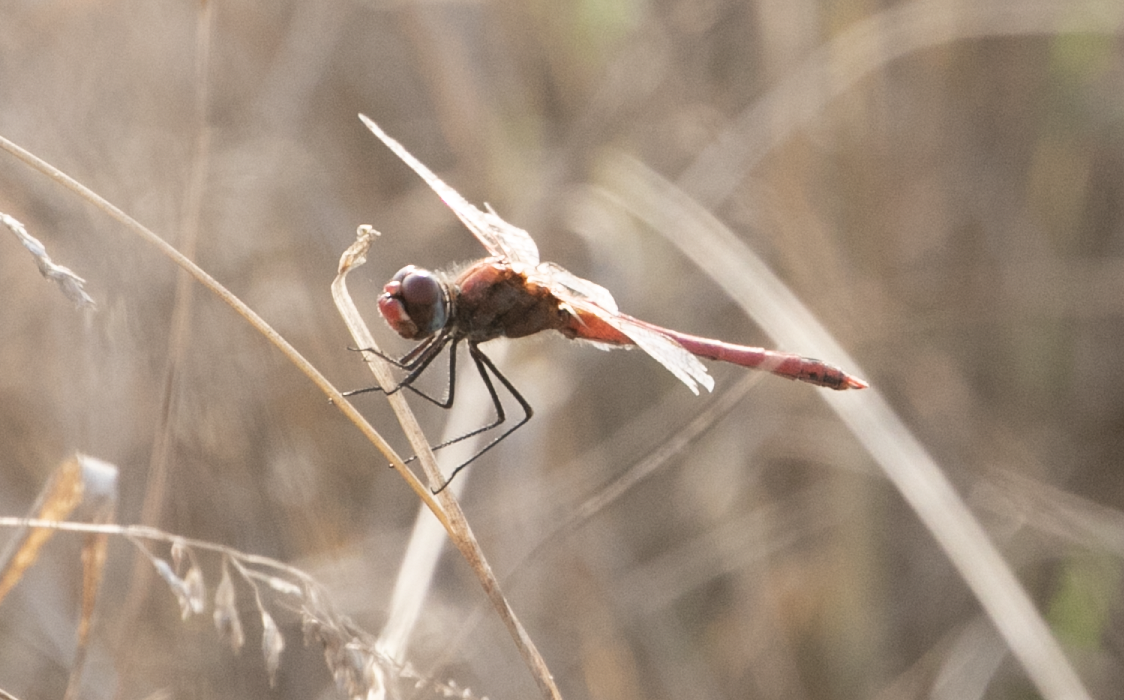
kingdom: Animalia
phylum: Arthropoda
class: Insecta
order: Odonata
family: Libellulidae
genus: Sympetrum
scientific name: Sympetrum fonscolombii
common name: Red-veined darter
